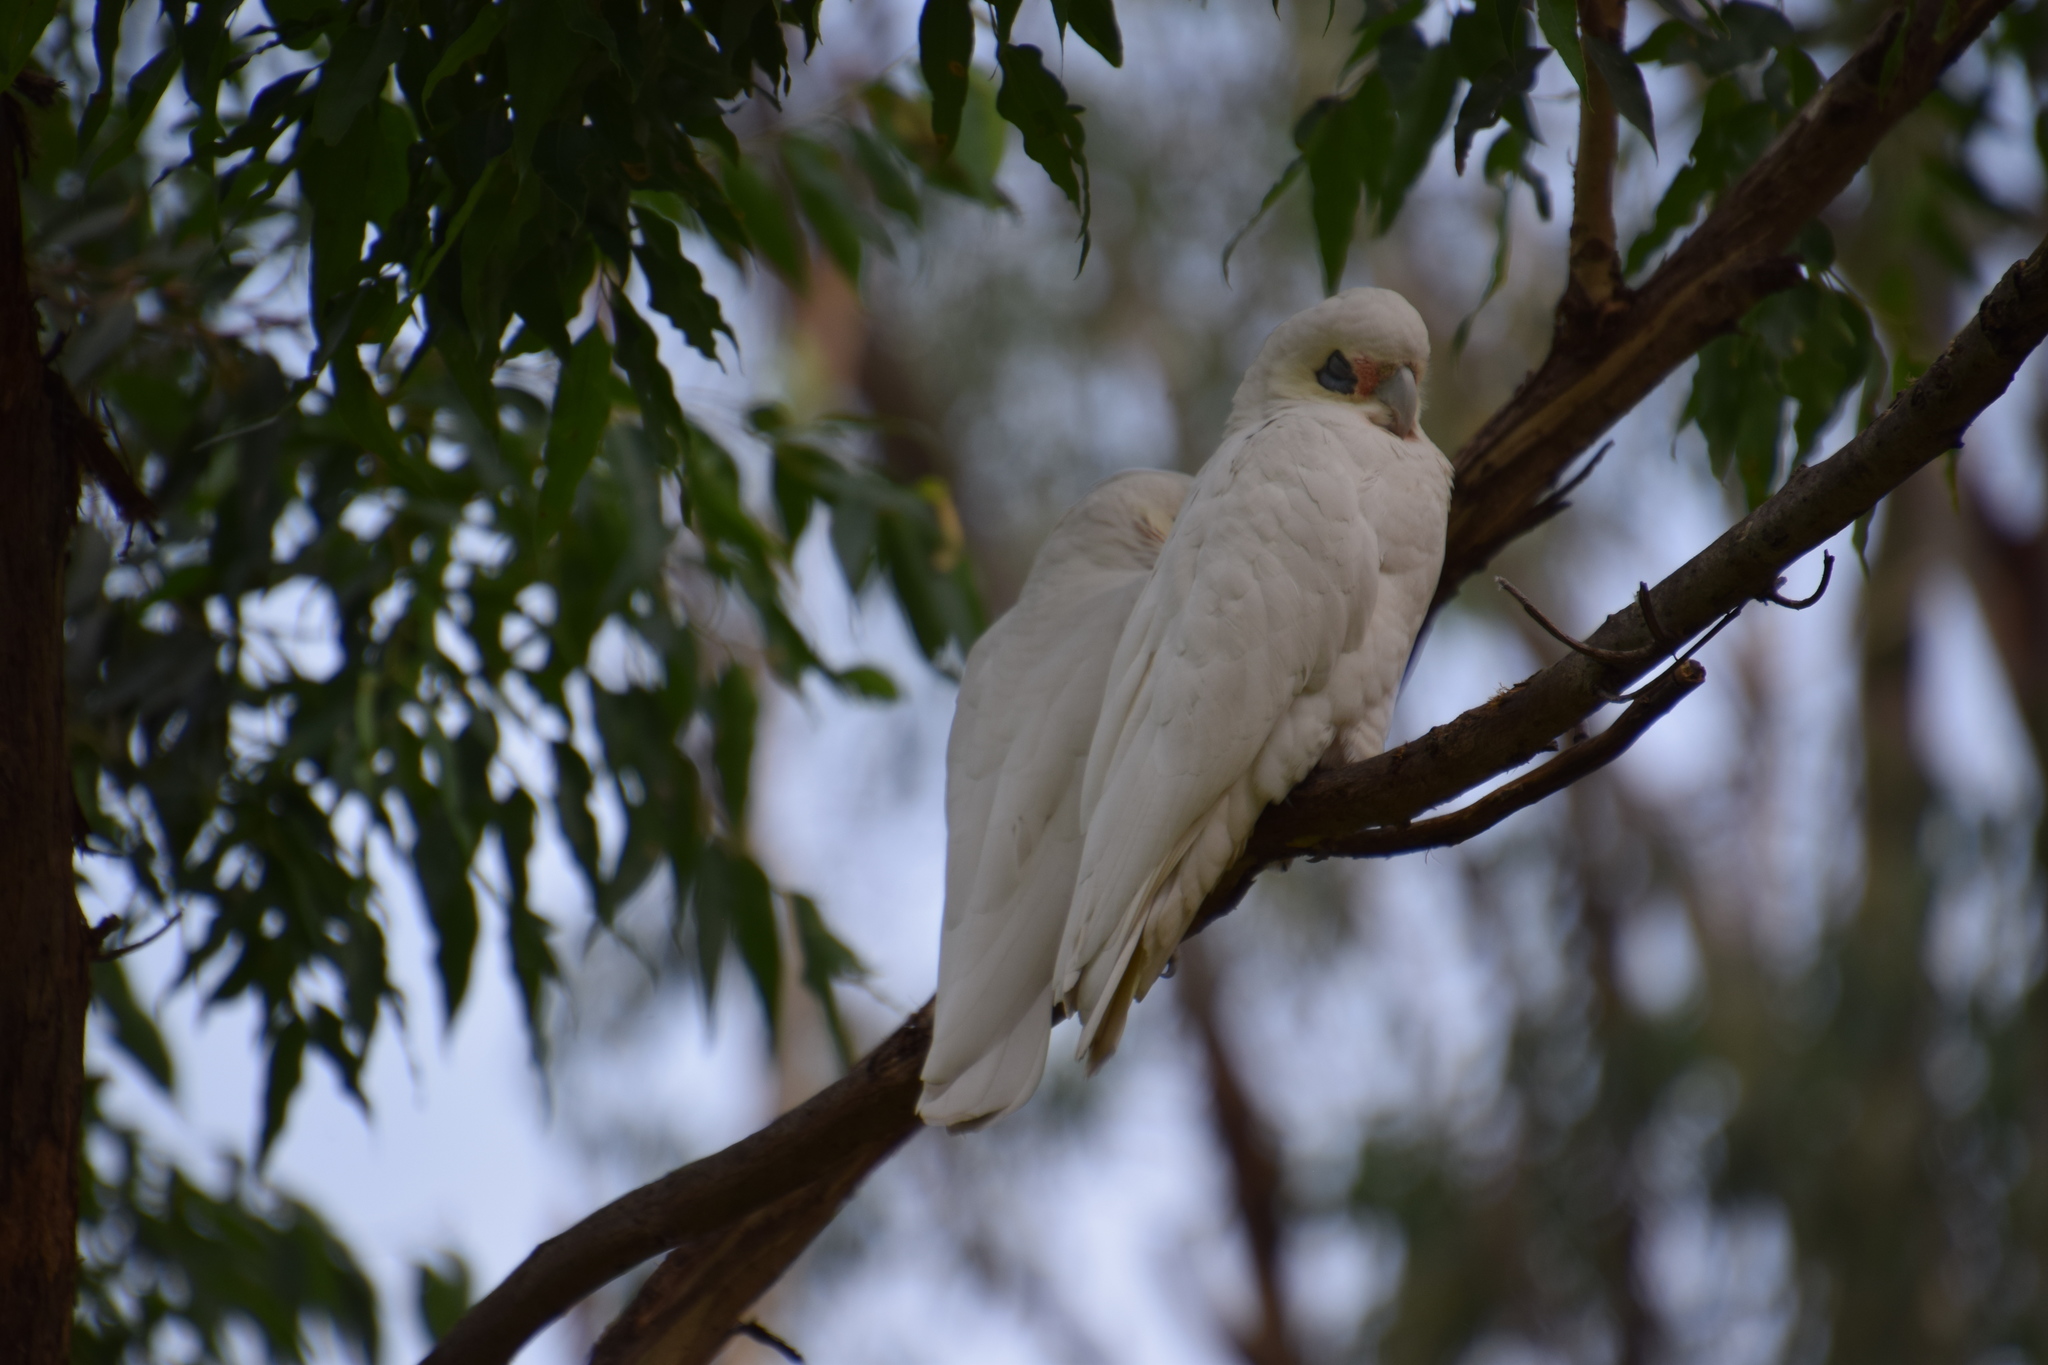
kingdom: Animalia
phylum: Chordata
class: Aves
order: Psittaciformes
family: Psittacidae
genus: Cacatua
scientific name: Cacatua sanguinea
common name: Little corella
